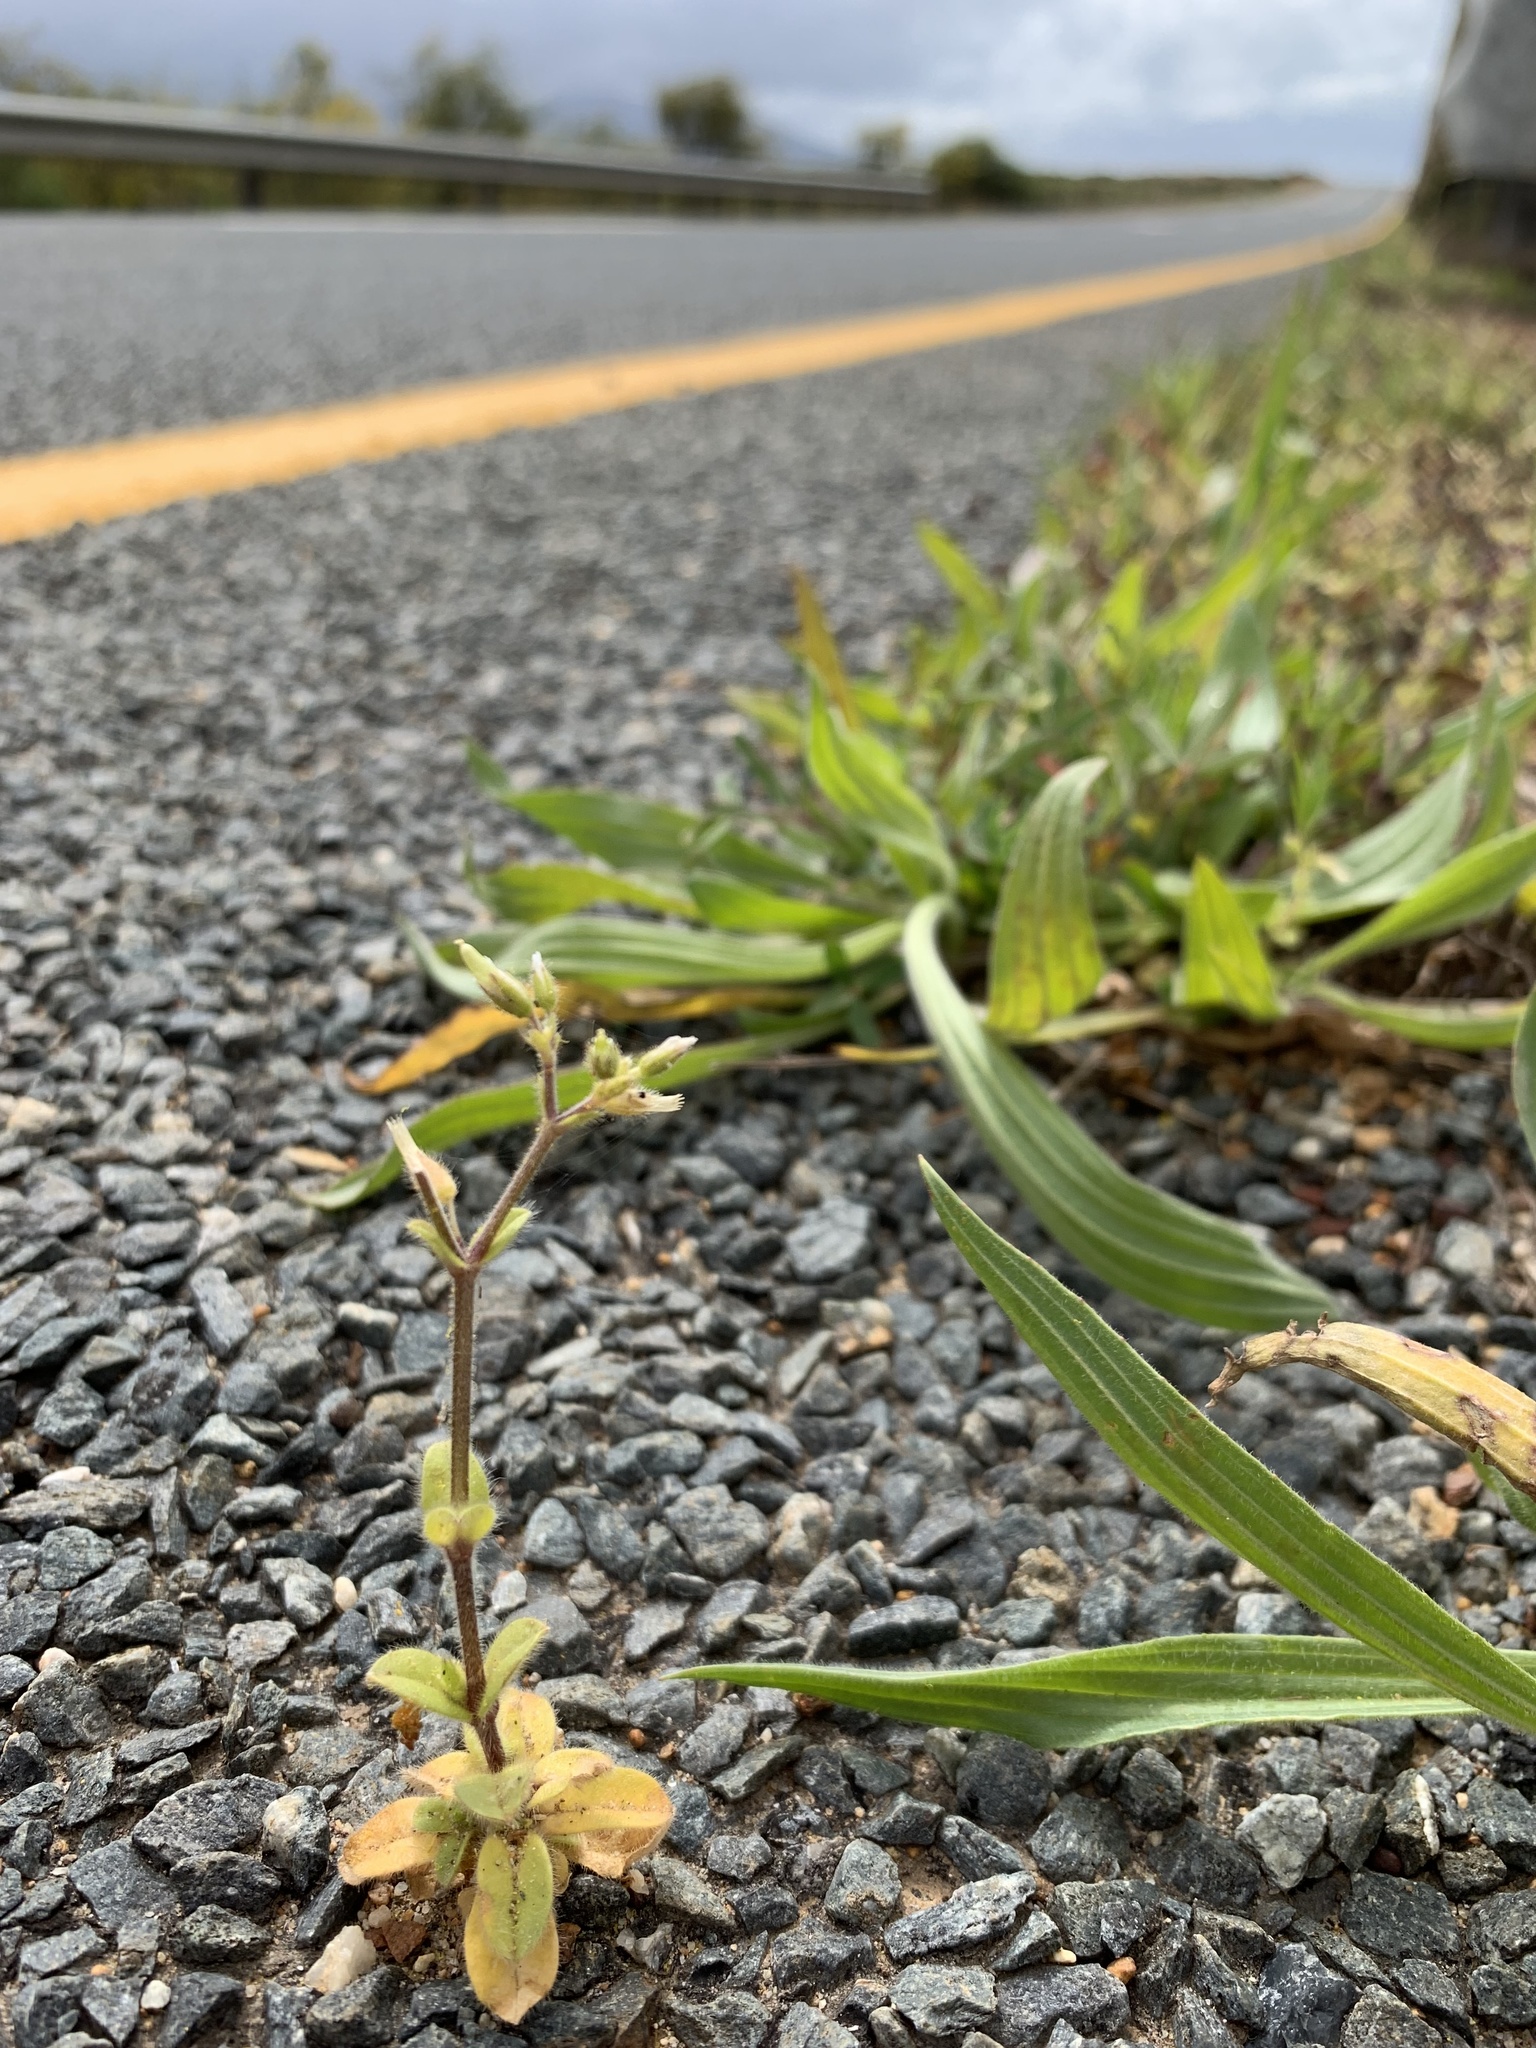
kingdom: Plantae
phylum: Tracheophyta
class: Magnoliopsida
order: Caryophyllales
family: Caryophyllaceae
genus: Cerastium
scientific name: Cerastium glomeratum
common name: Sticky chickweed
